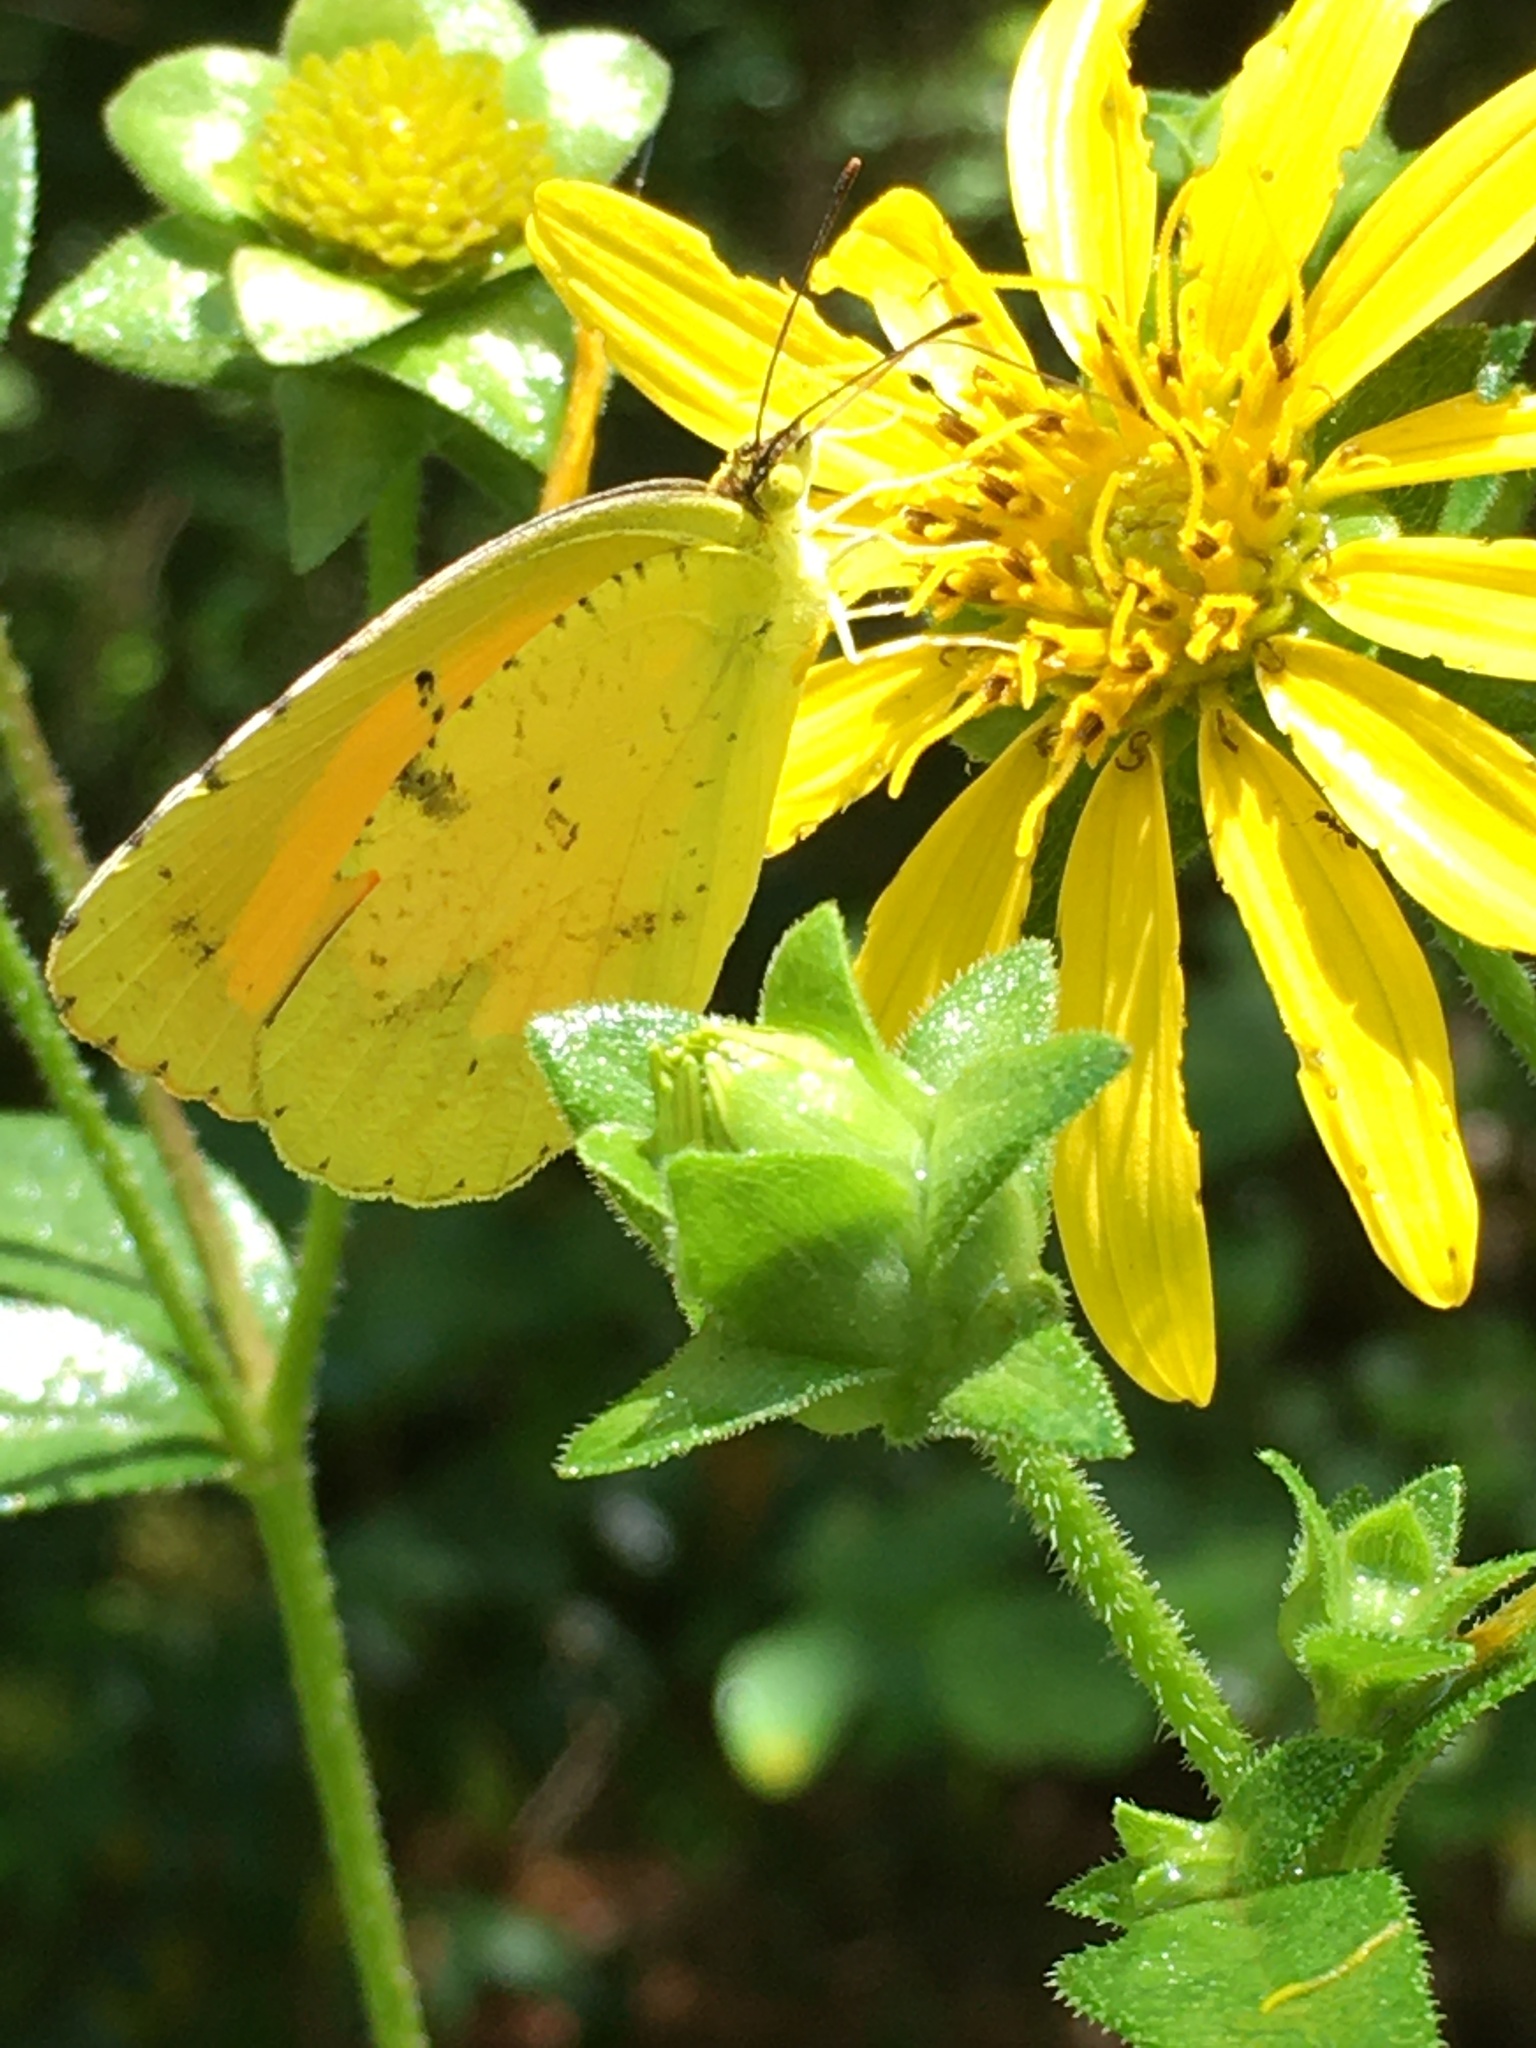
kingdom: Animalia
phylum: Arthropoda
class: Insecta
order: Lepidoptera
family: Pieridae
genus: Abaeis
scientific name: Abaeis nicippe
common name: Sleepy orange
